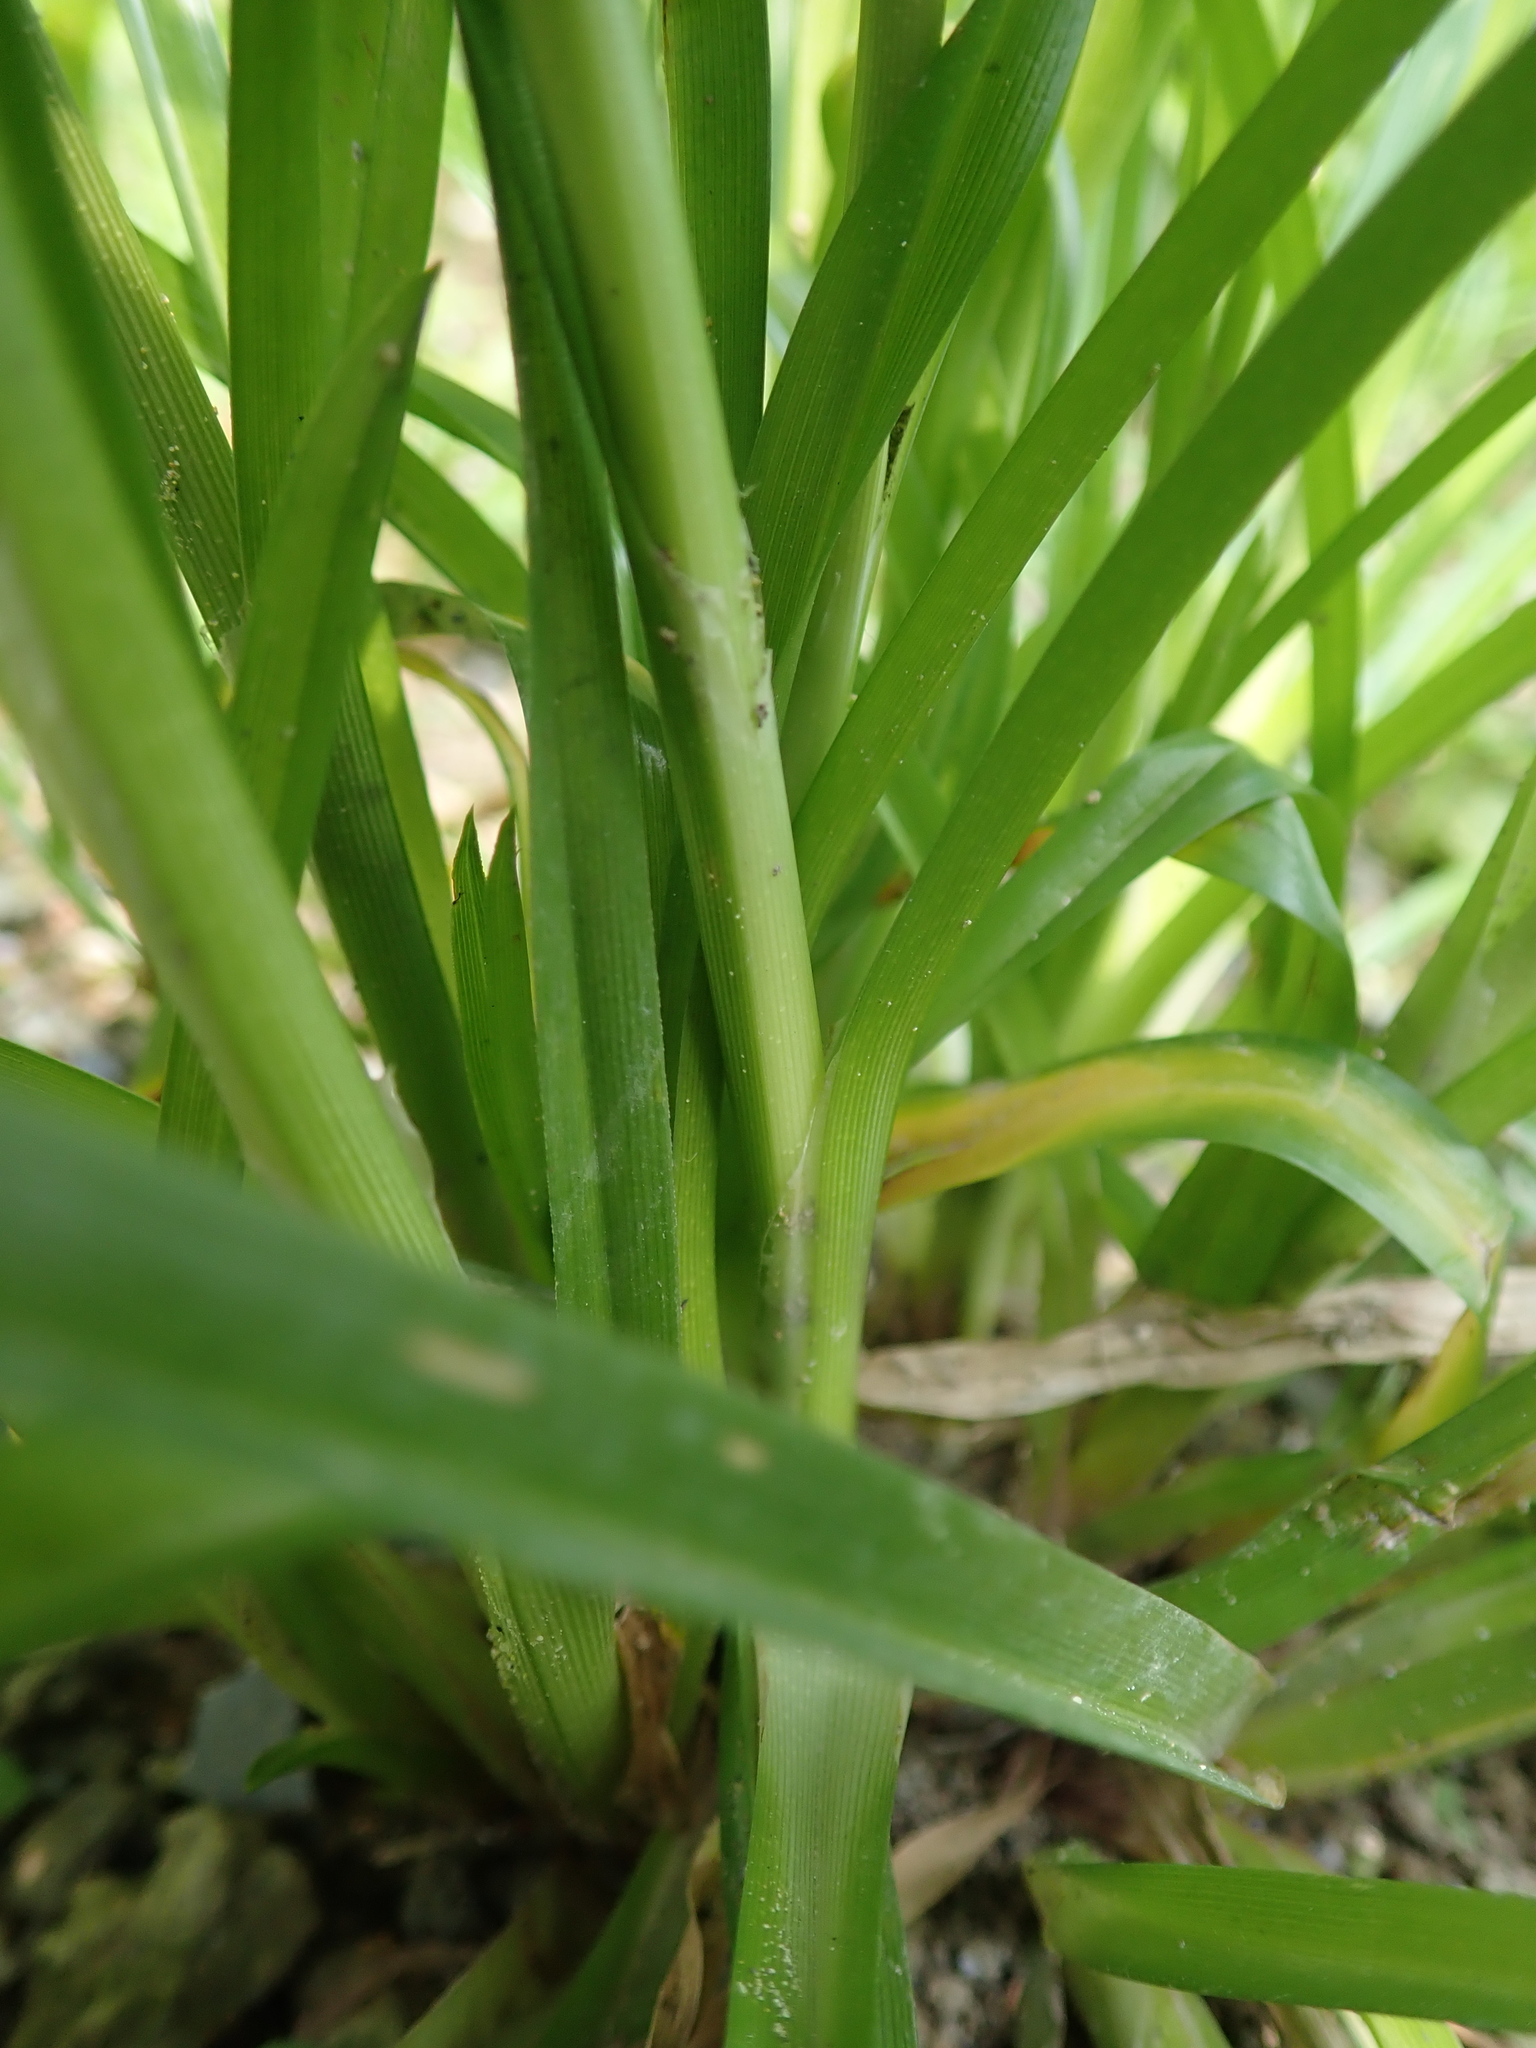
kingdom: Plantae
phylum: Tracheophyta
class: Liliopsida
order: Poales
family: Cyperaceae
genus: Cyperus
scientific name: Cyperus eragrostis
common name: Tall flatsedge
